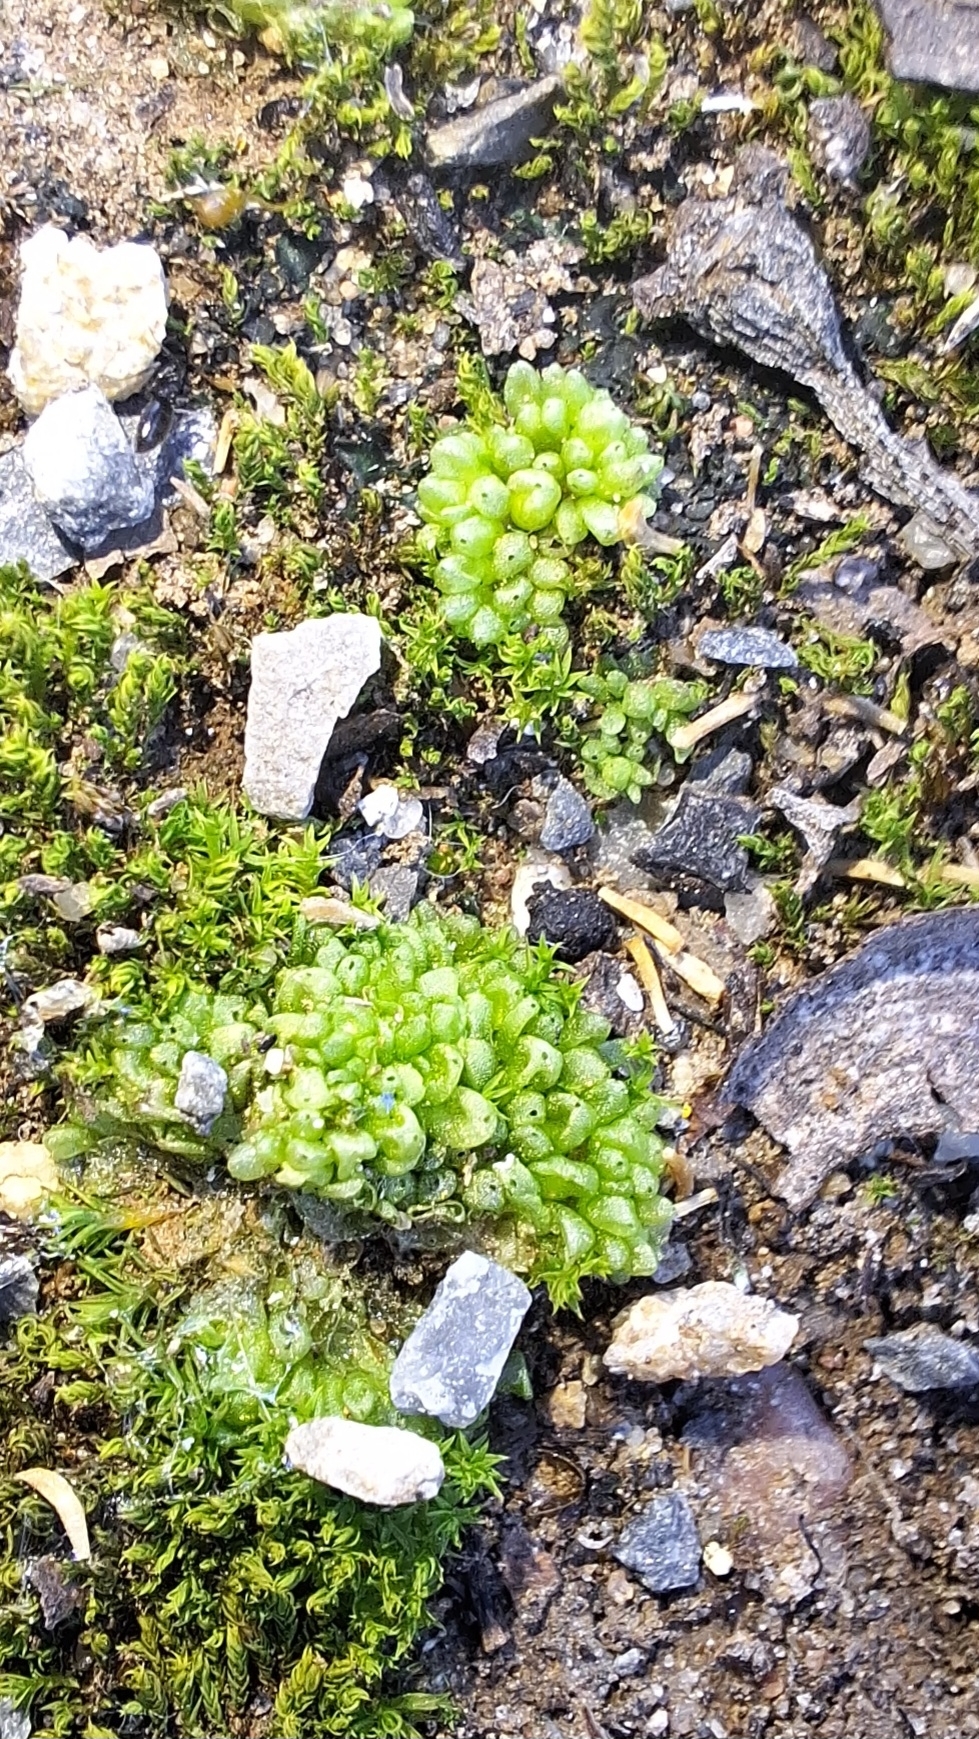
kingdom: Plantae
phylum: Marchantiophyta
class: Marchantiopsida
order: Sphaerocarpales
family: Sphaerocarpaceae
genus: Sphaerocarpos
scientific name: Sphaerocarpos texanus
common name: Texas balloonwort
